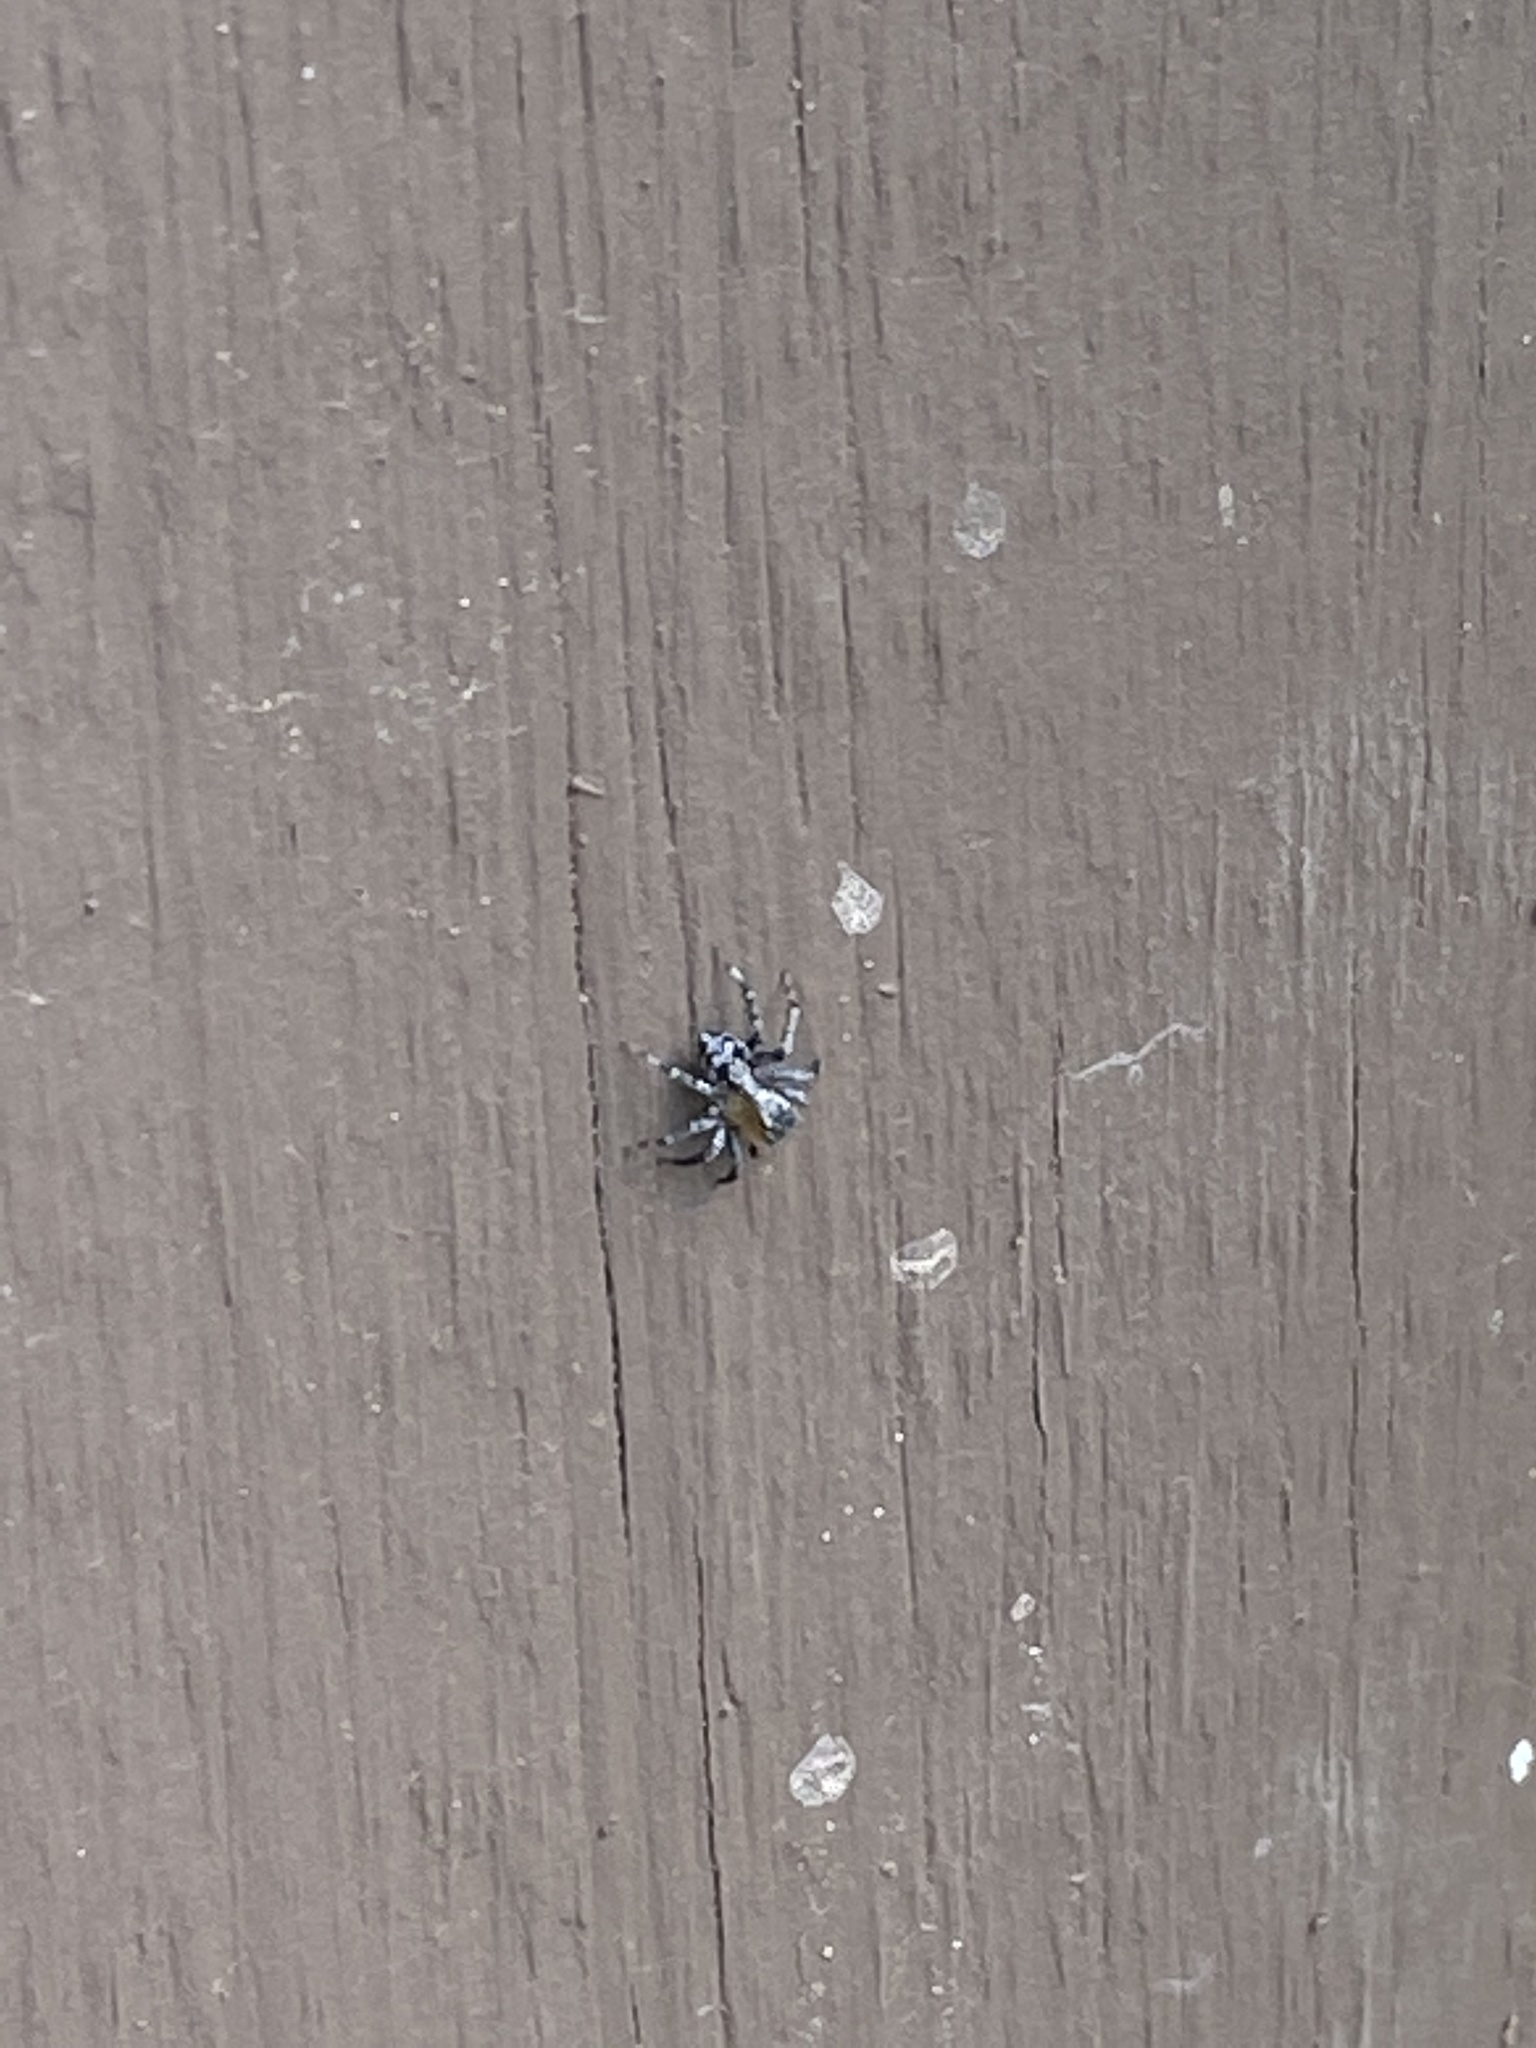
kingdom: Animalia
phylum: Arthropoda
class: Arachnida
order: Araneae
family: Salticidae
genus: Naphrys
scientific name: Naphrys pulex
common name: Flea jumping spider
